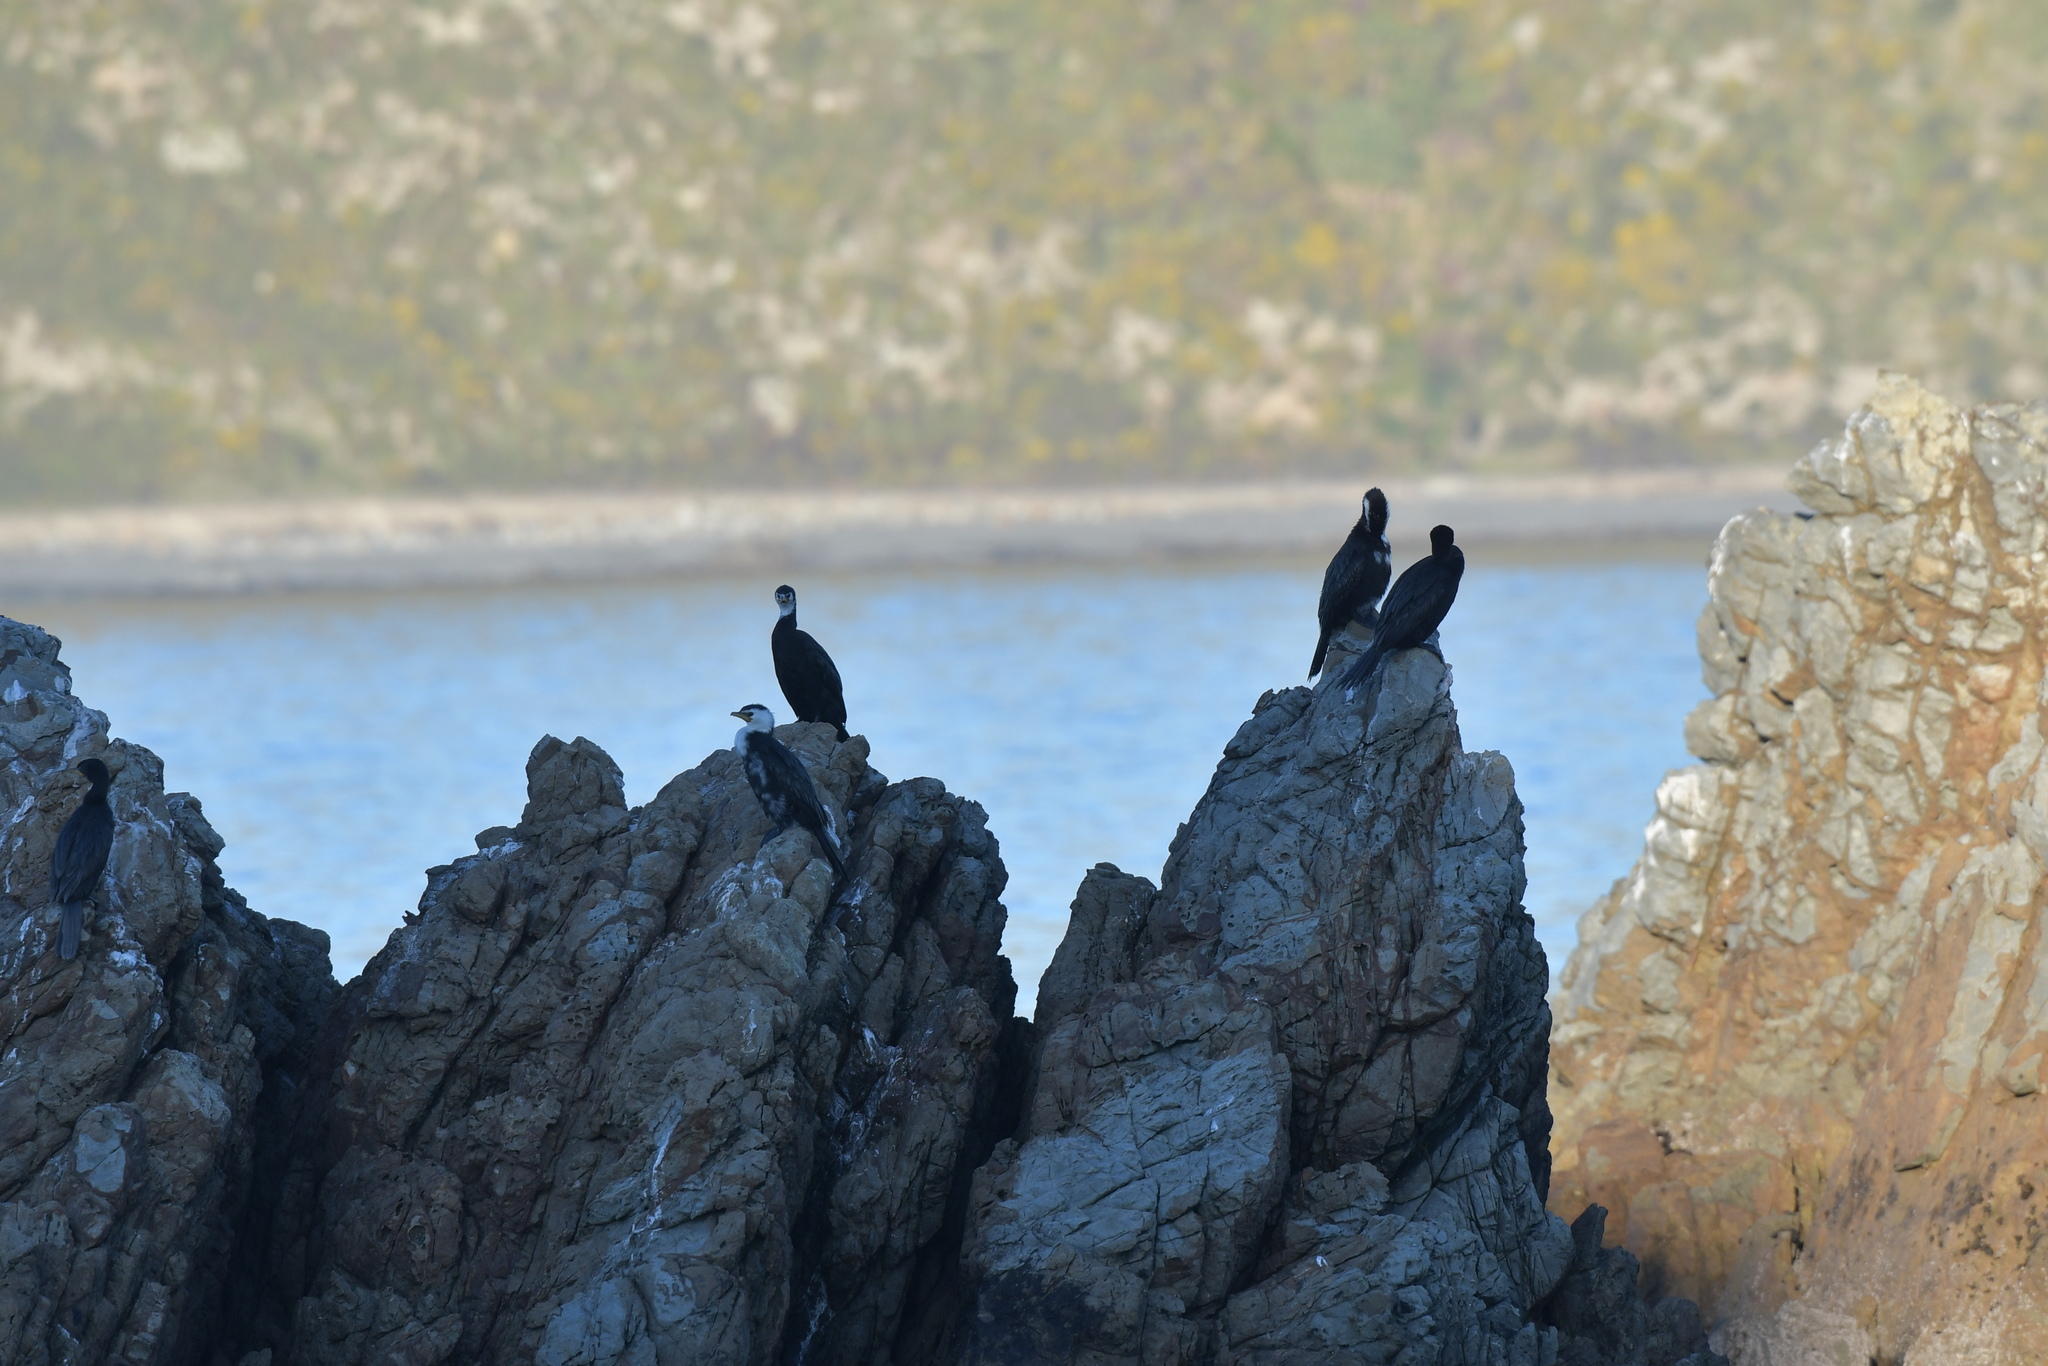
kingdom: Animalia
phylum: Chordata
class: Aves
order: Suliformes
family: Phalacrocoracidae
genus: Microcarbo
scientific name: Microcarbo melanoleucos
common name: Little pied cormorant
